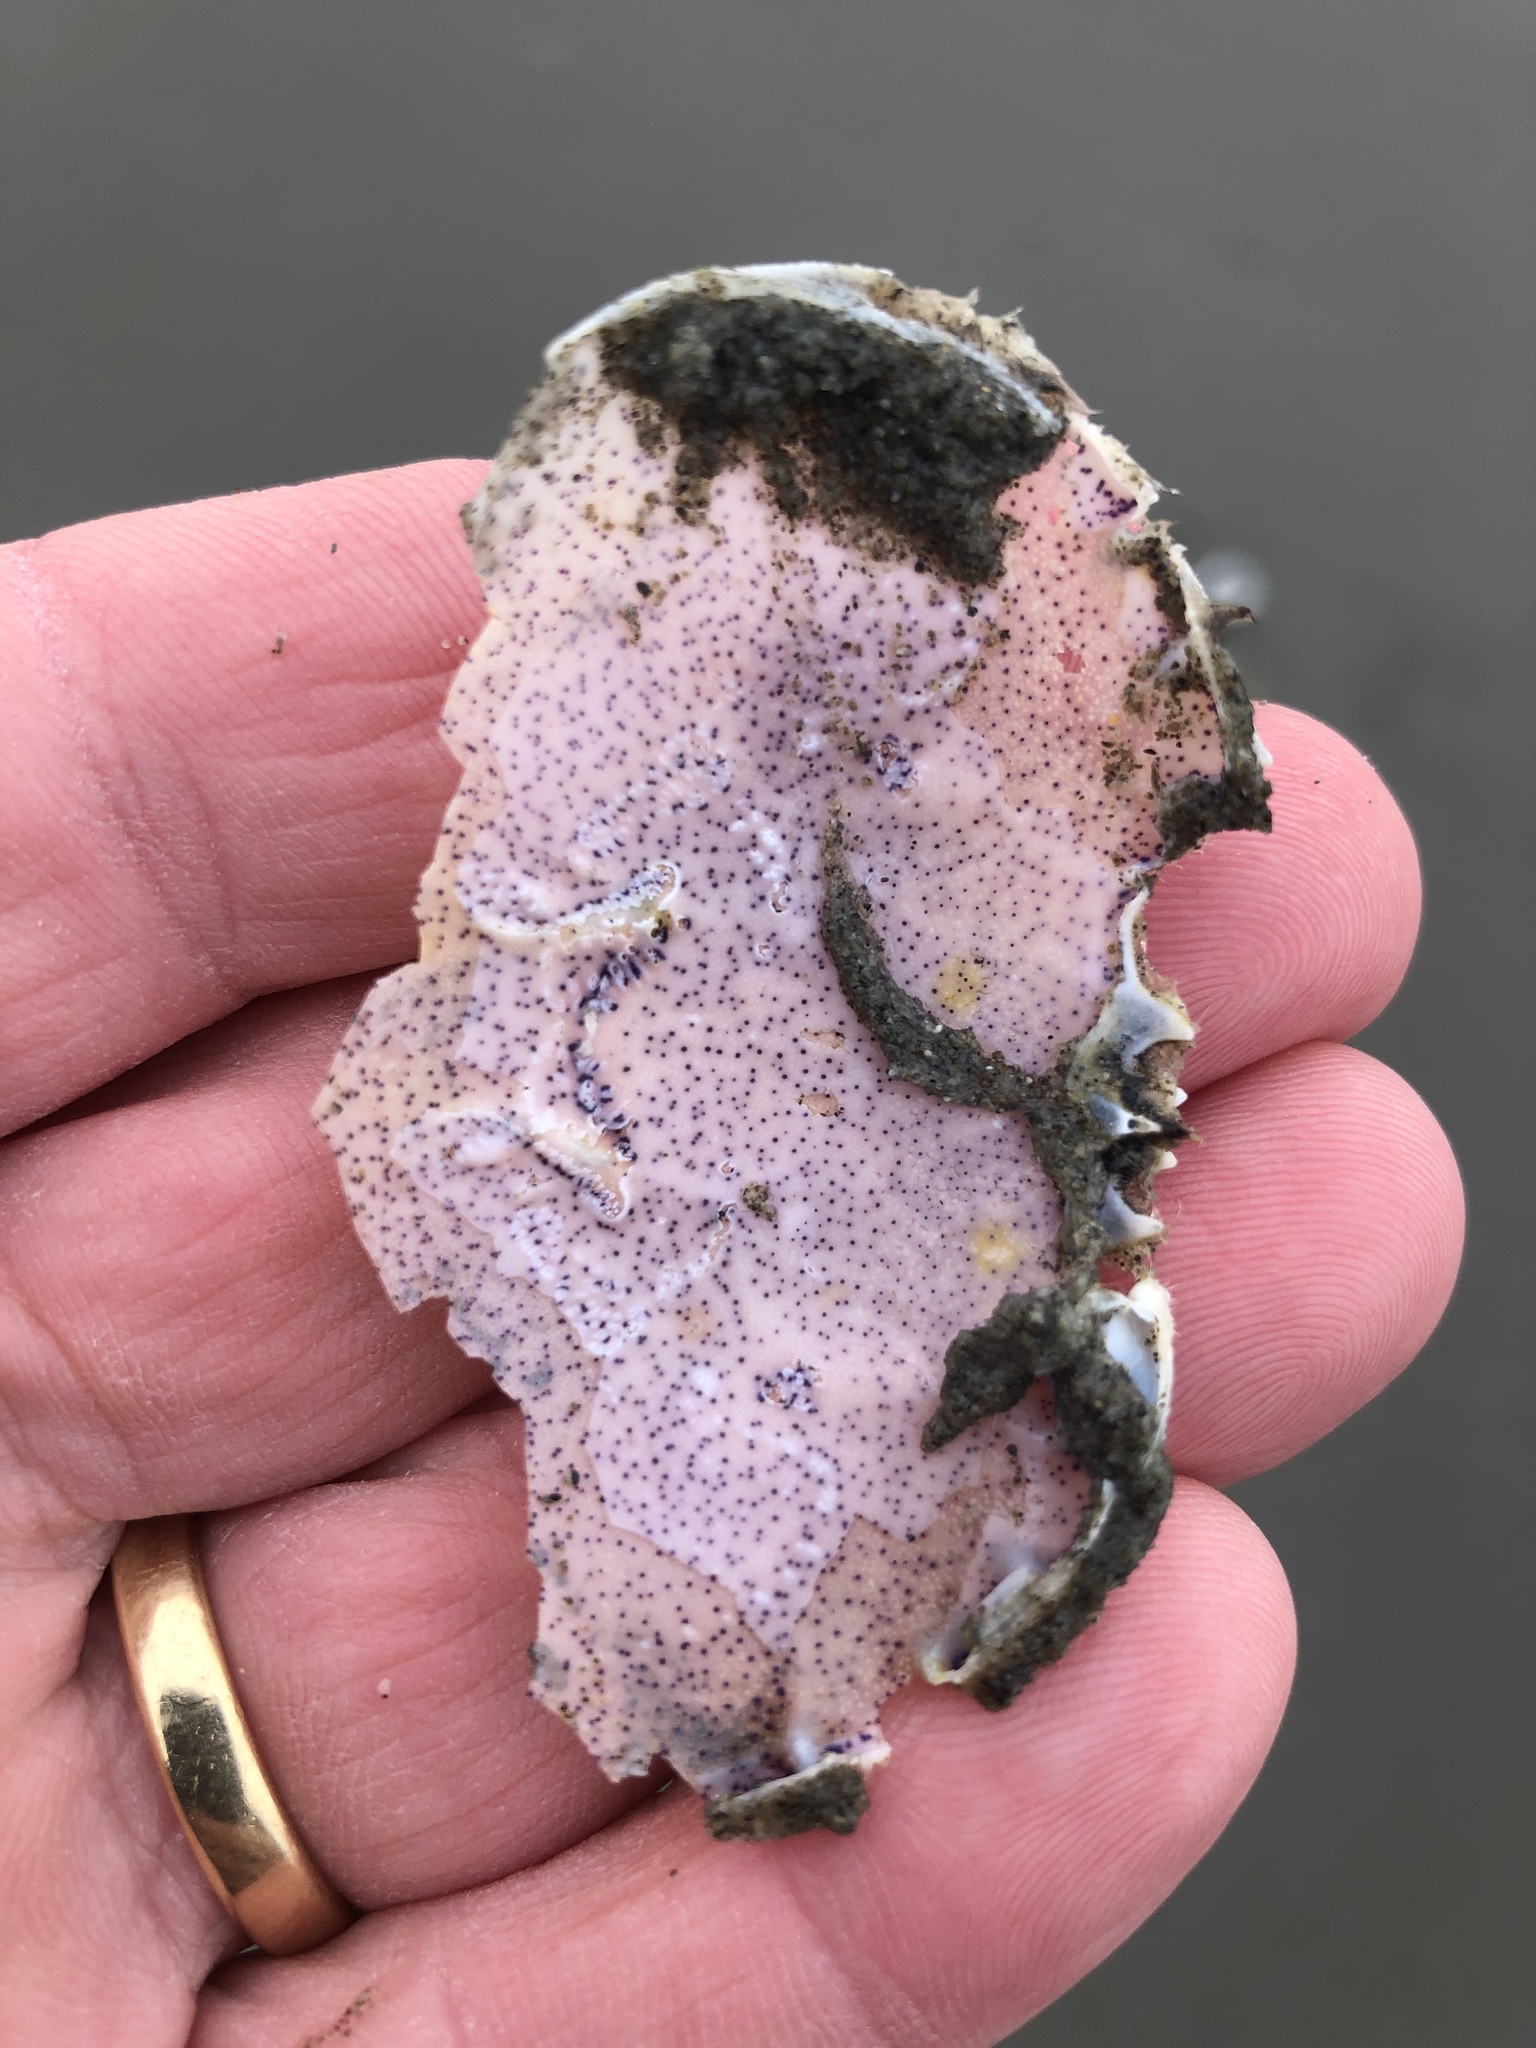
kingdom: Animalia
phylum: Arthropoda
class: Malacostraca
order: Decapoda
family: Ovalipidae
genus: Ovalipes
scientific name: Ovalipes catharus
